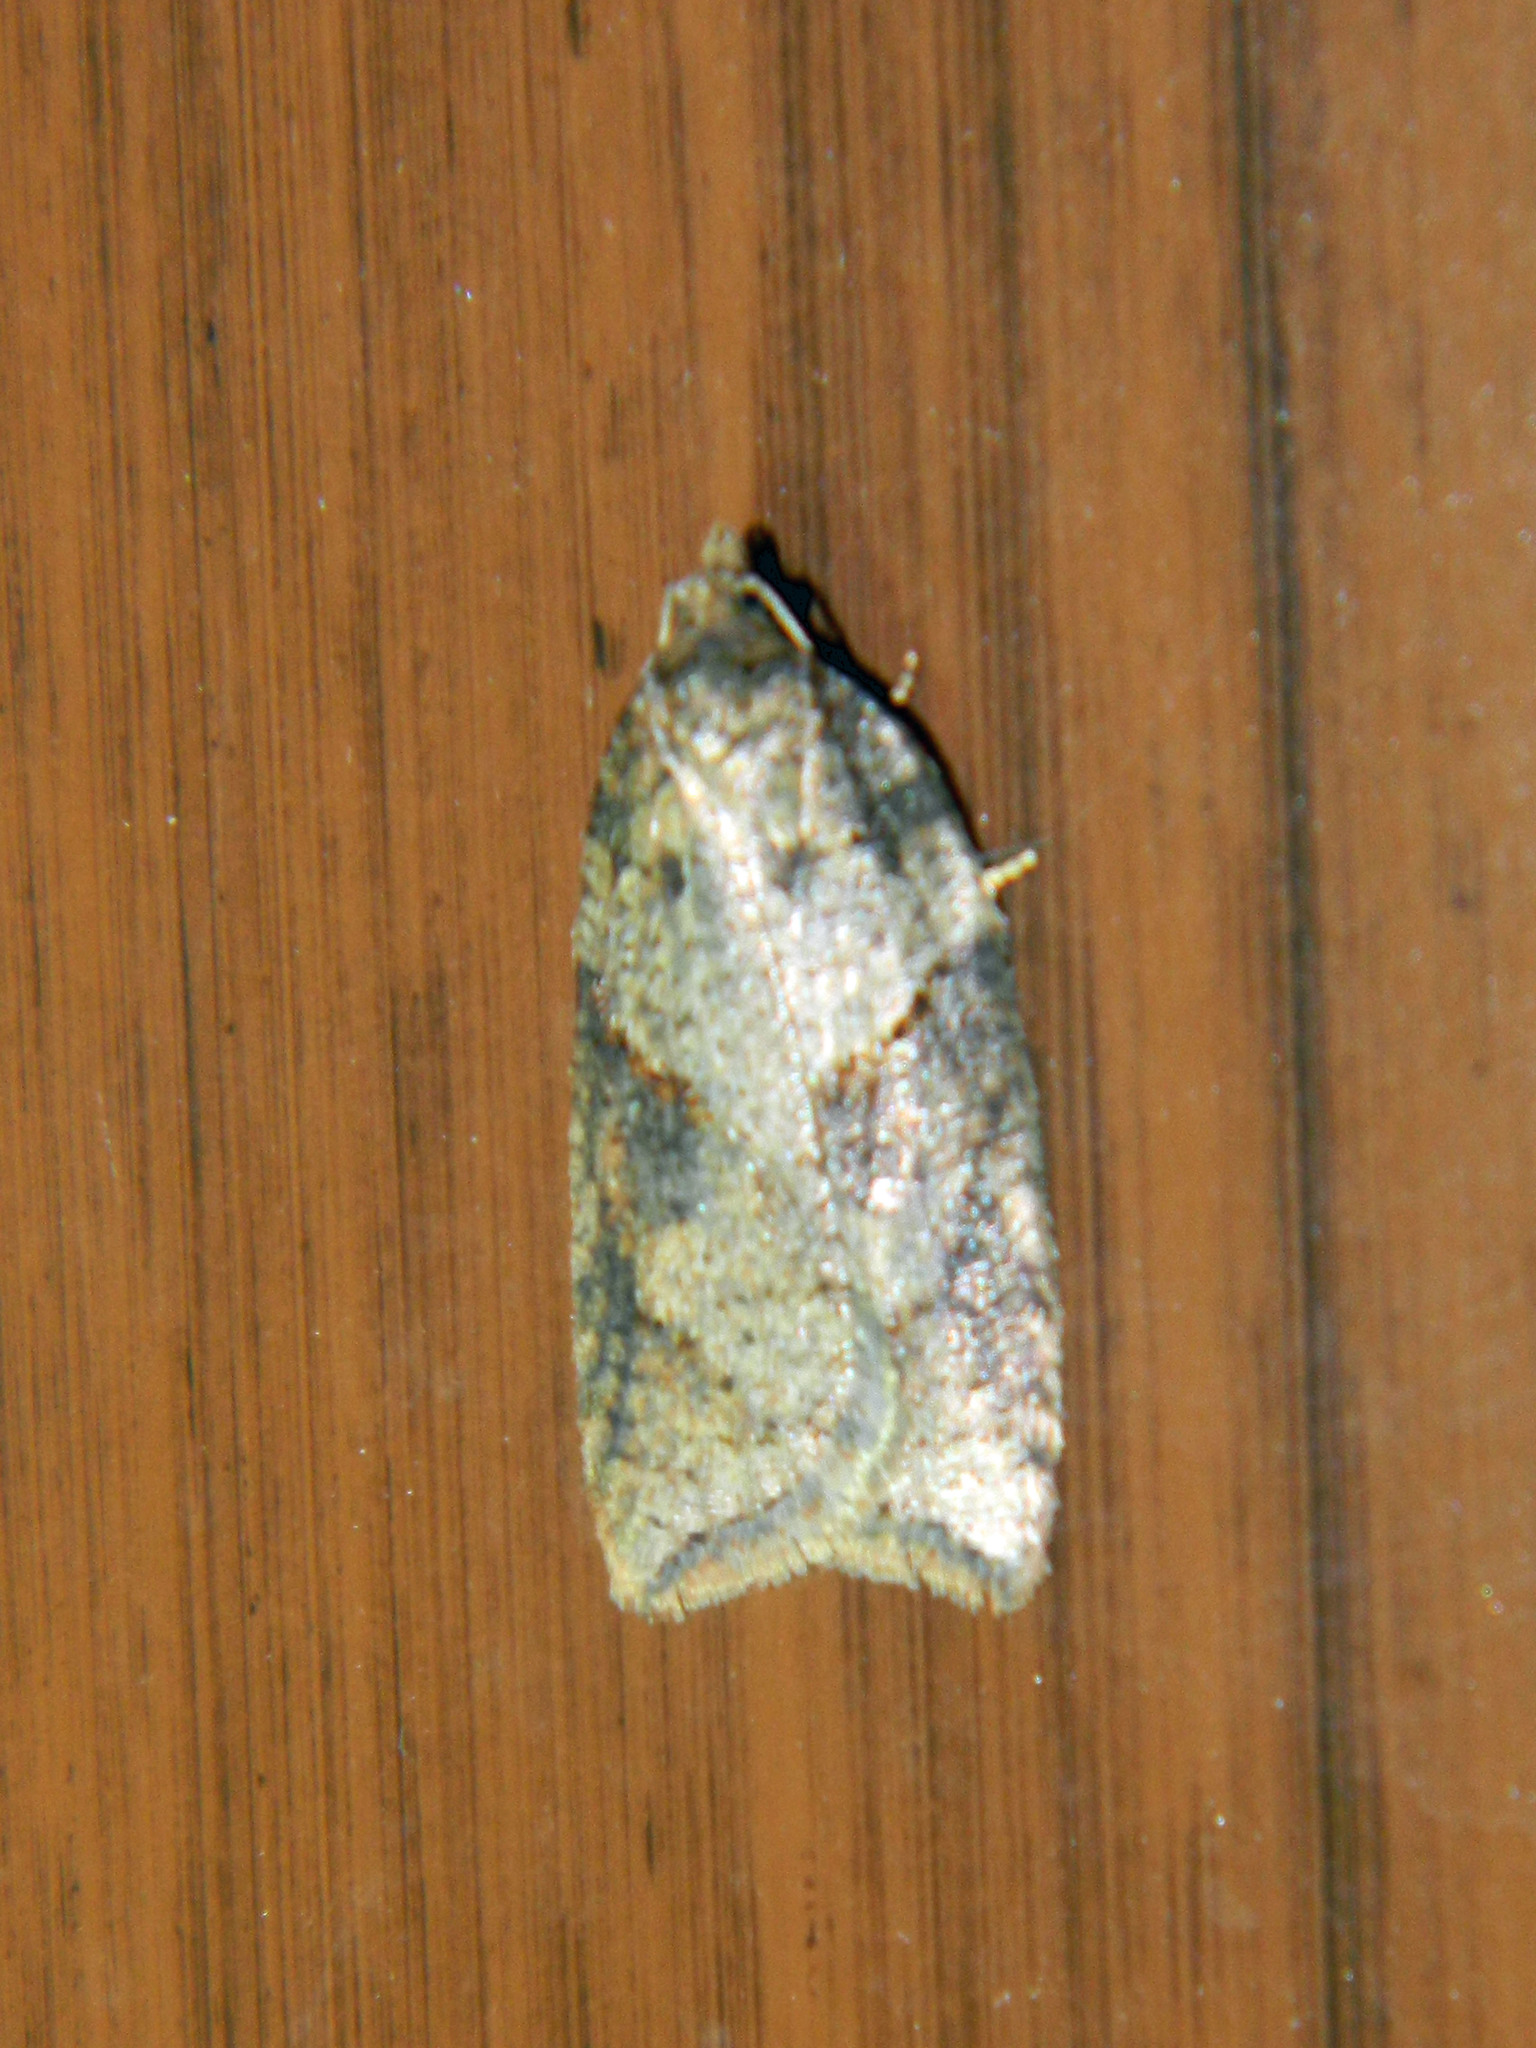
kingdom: Animalia
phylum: Arthropoda
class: Insecta
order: Lepidoptera
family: Tortricidae
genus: Acleris
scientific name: Acleris maccana
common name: Marbled button
